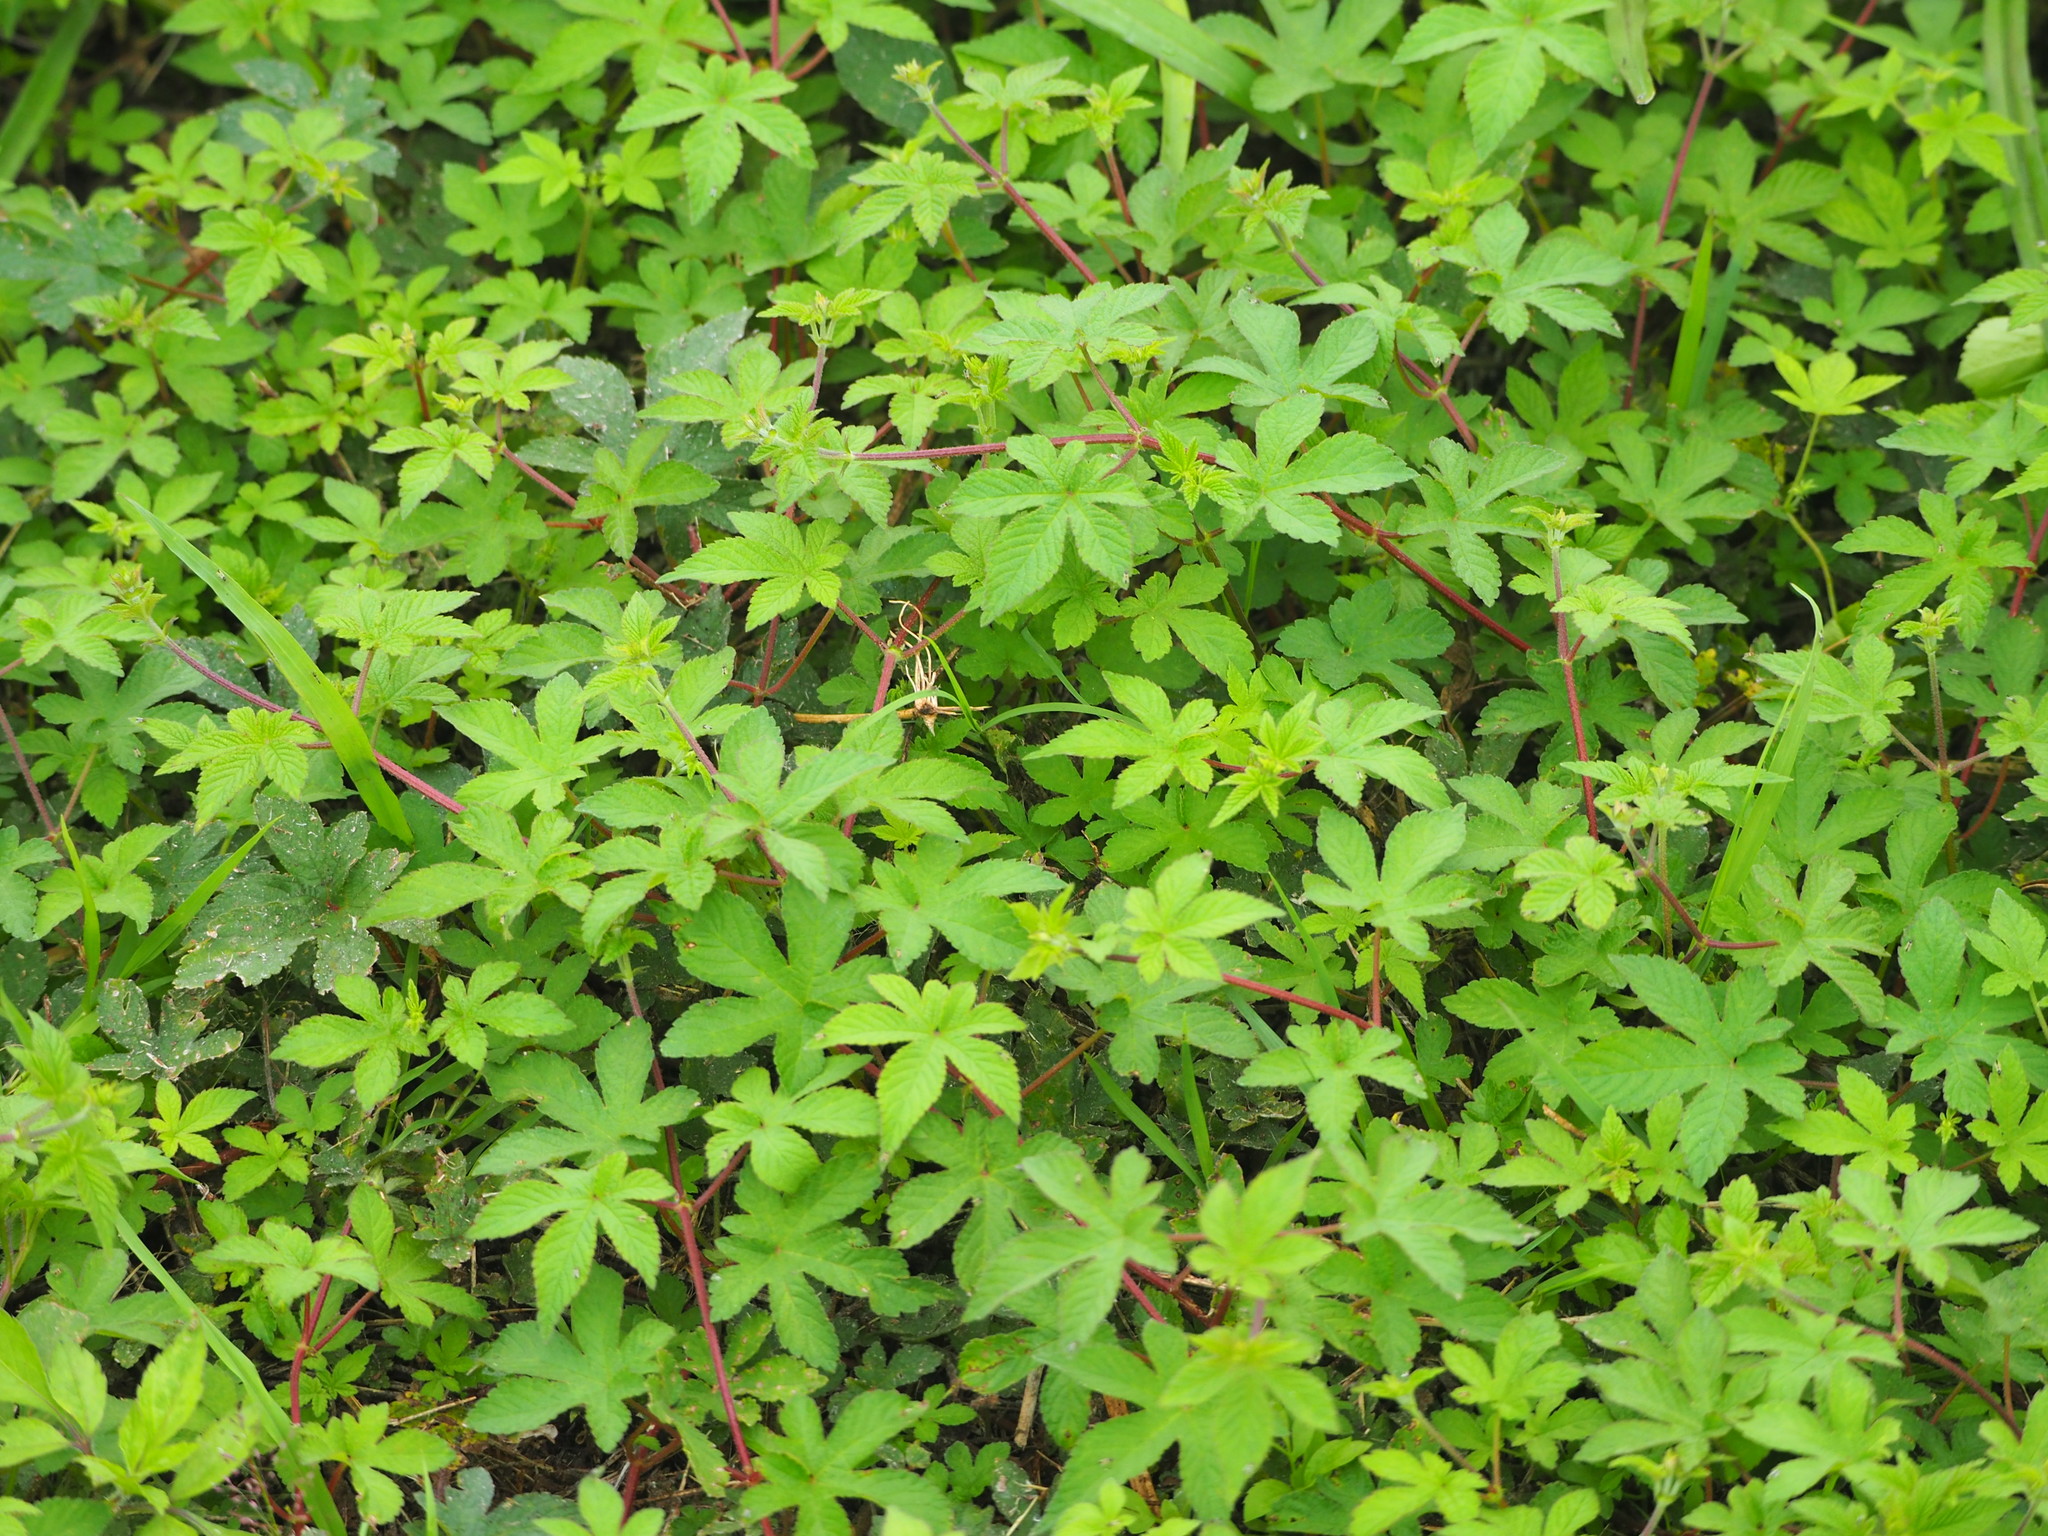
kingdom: Plantae
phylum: Tracheophyta
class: Magnoliopsida
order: Rosales
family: Cannabaceae
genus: Humulus
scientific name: Humulus scandens
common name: Japanese hop
